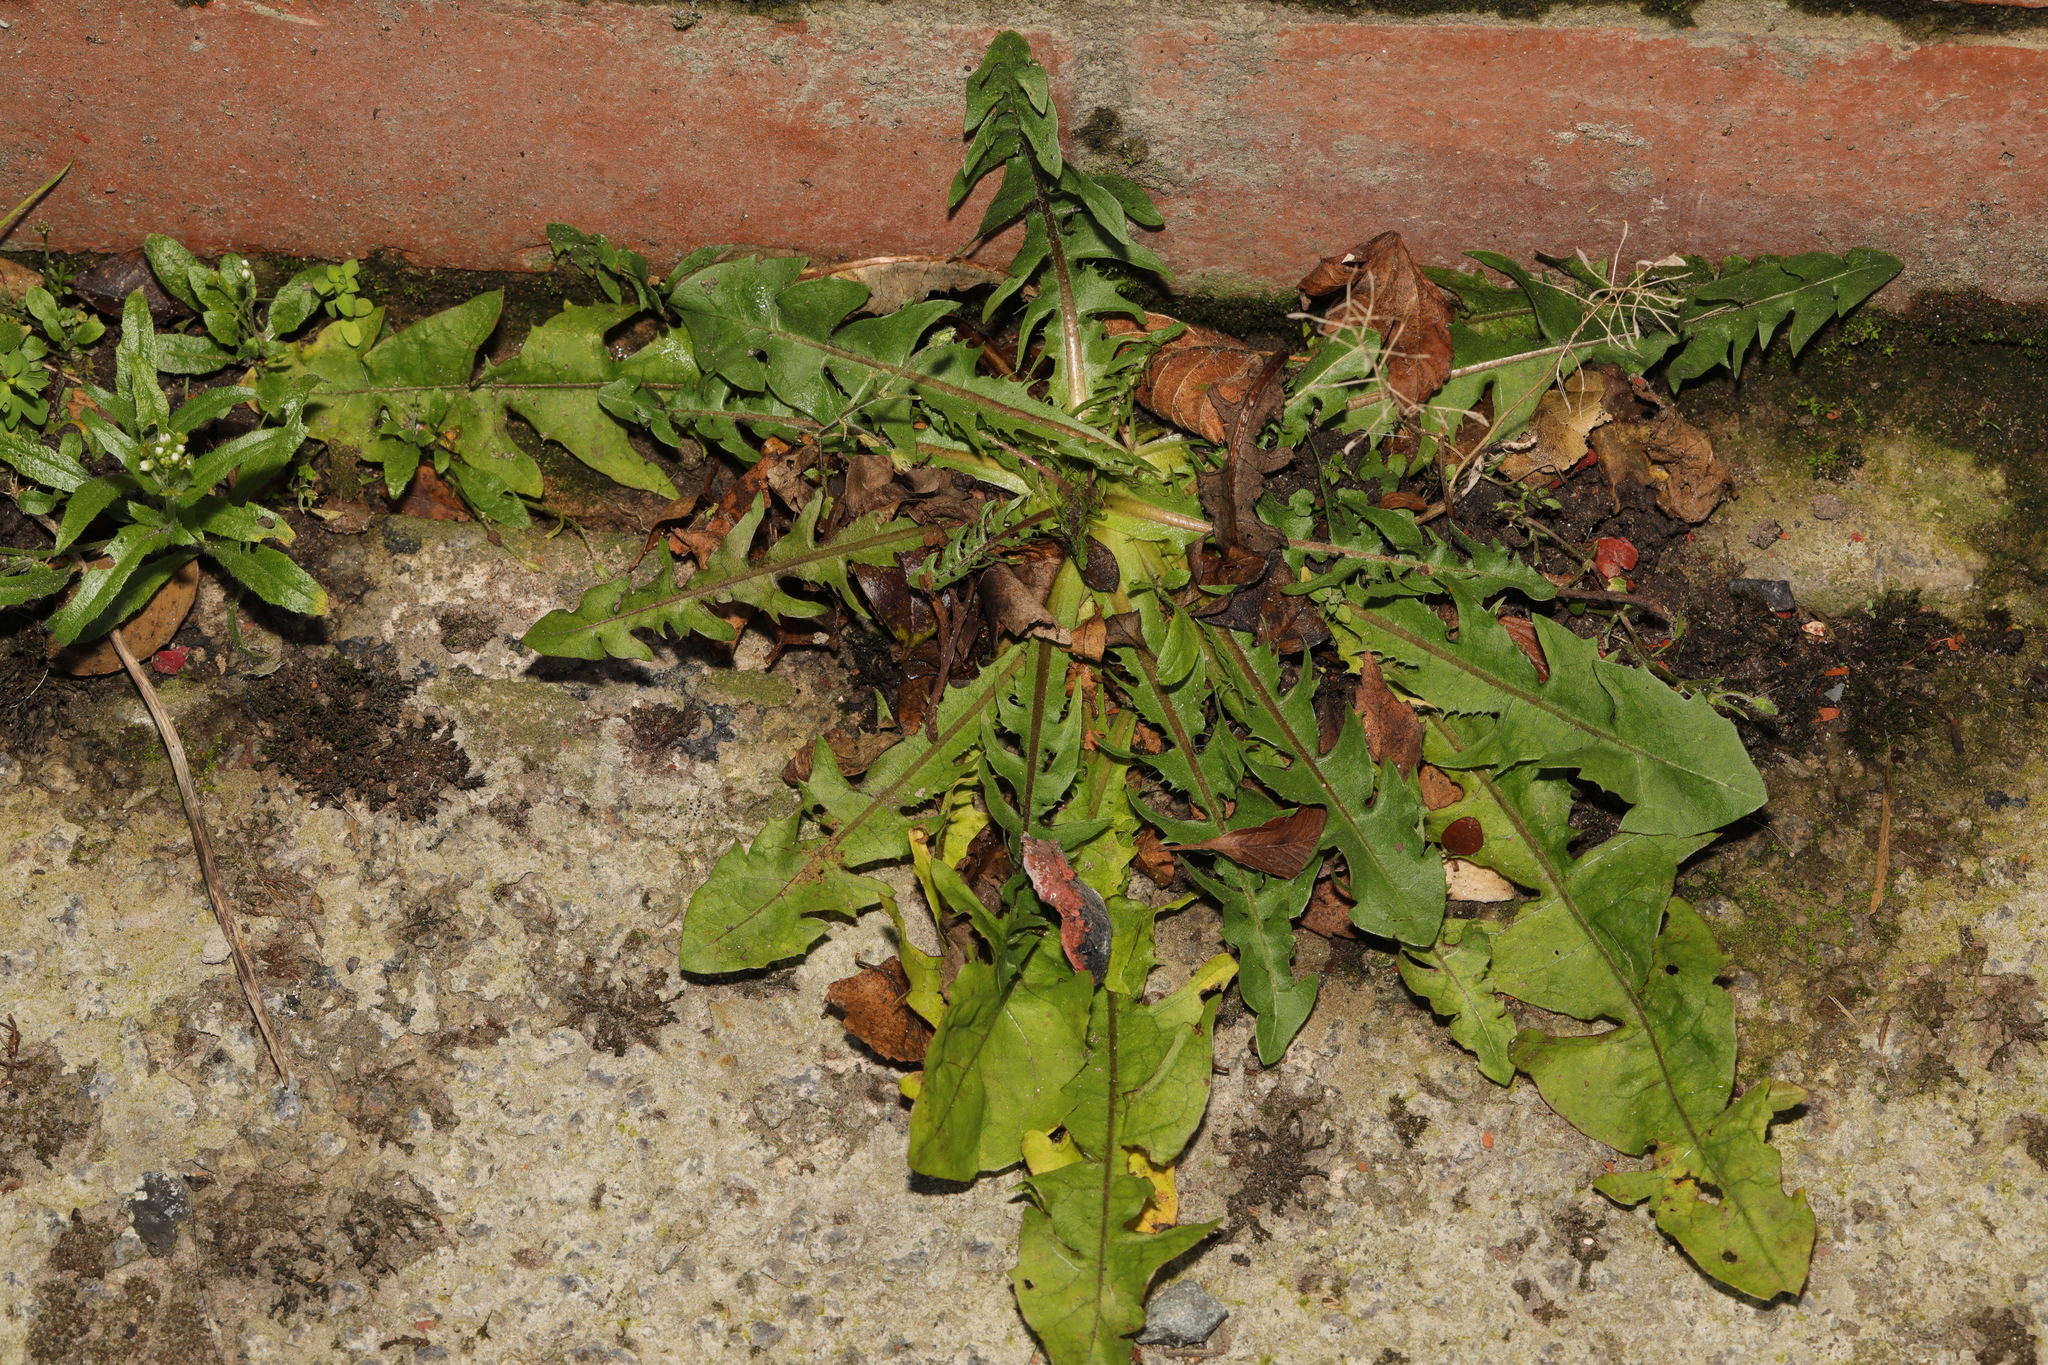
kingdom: Plantae
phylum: Tracheophyta
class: Magnoliopsida
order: Asterales
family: Asteraceae
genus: Taraxacum
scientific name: Taraxacum officinale
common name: Common dandelion
